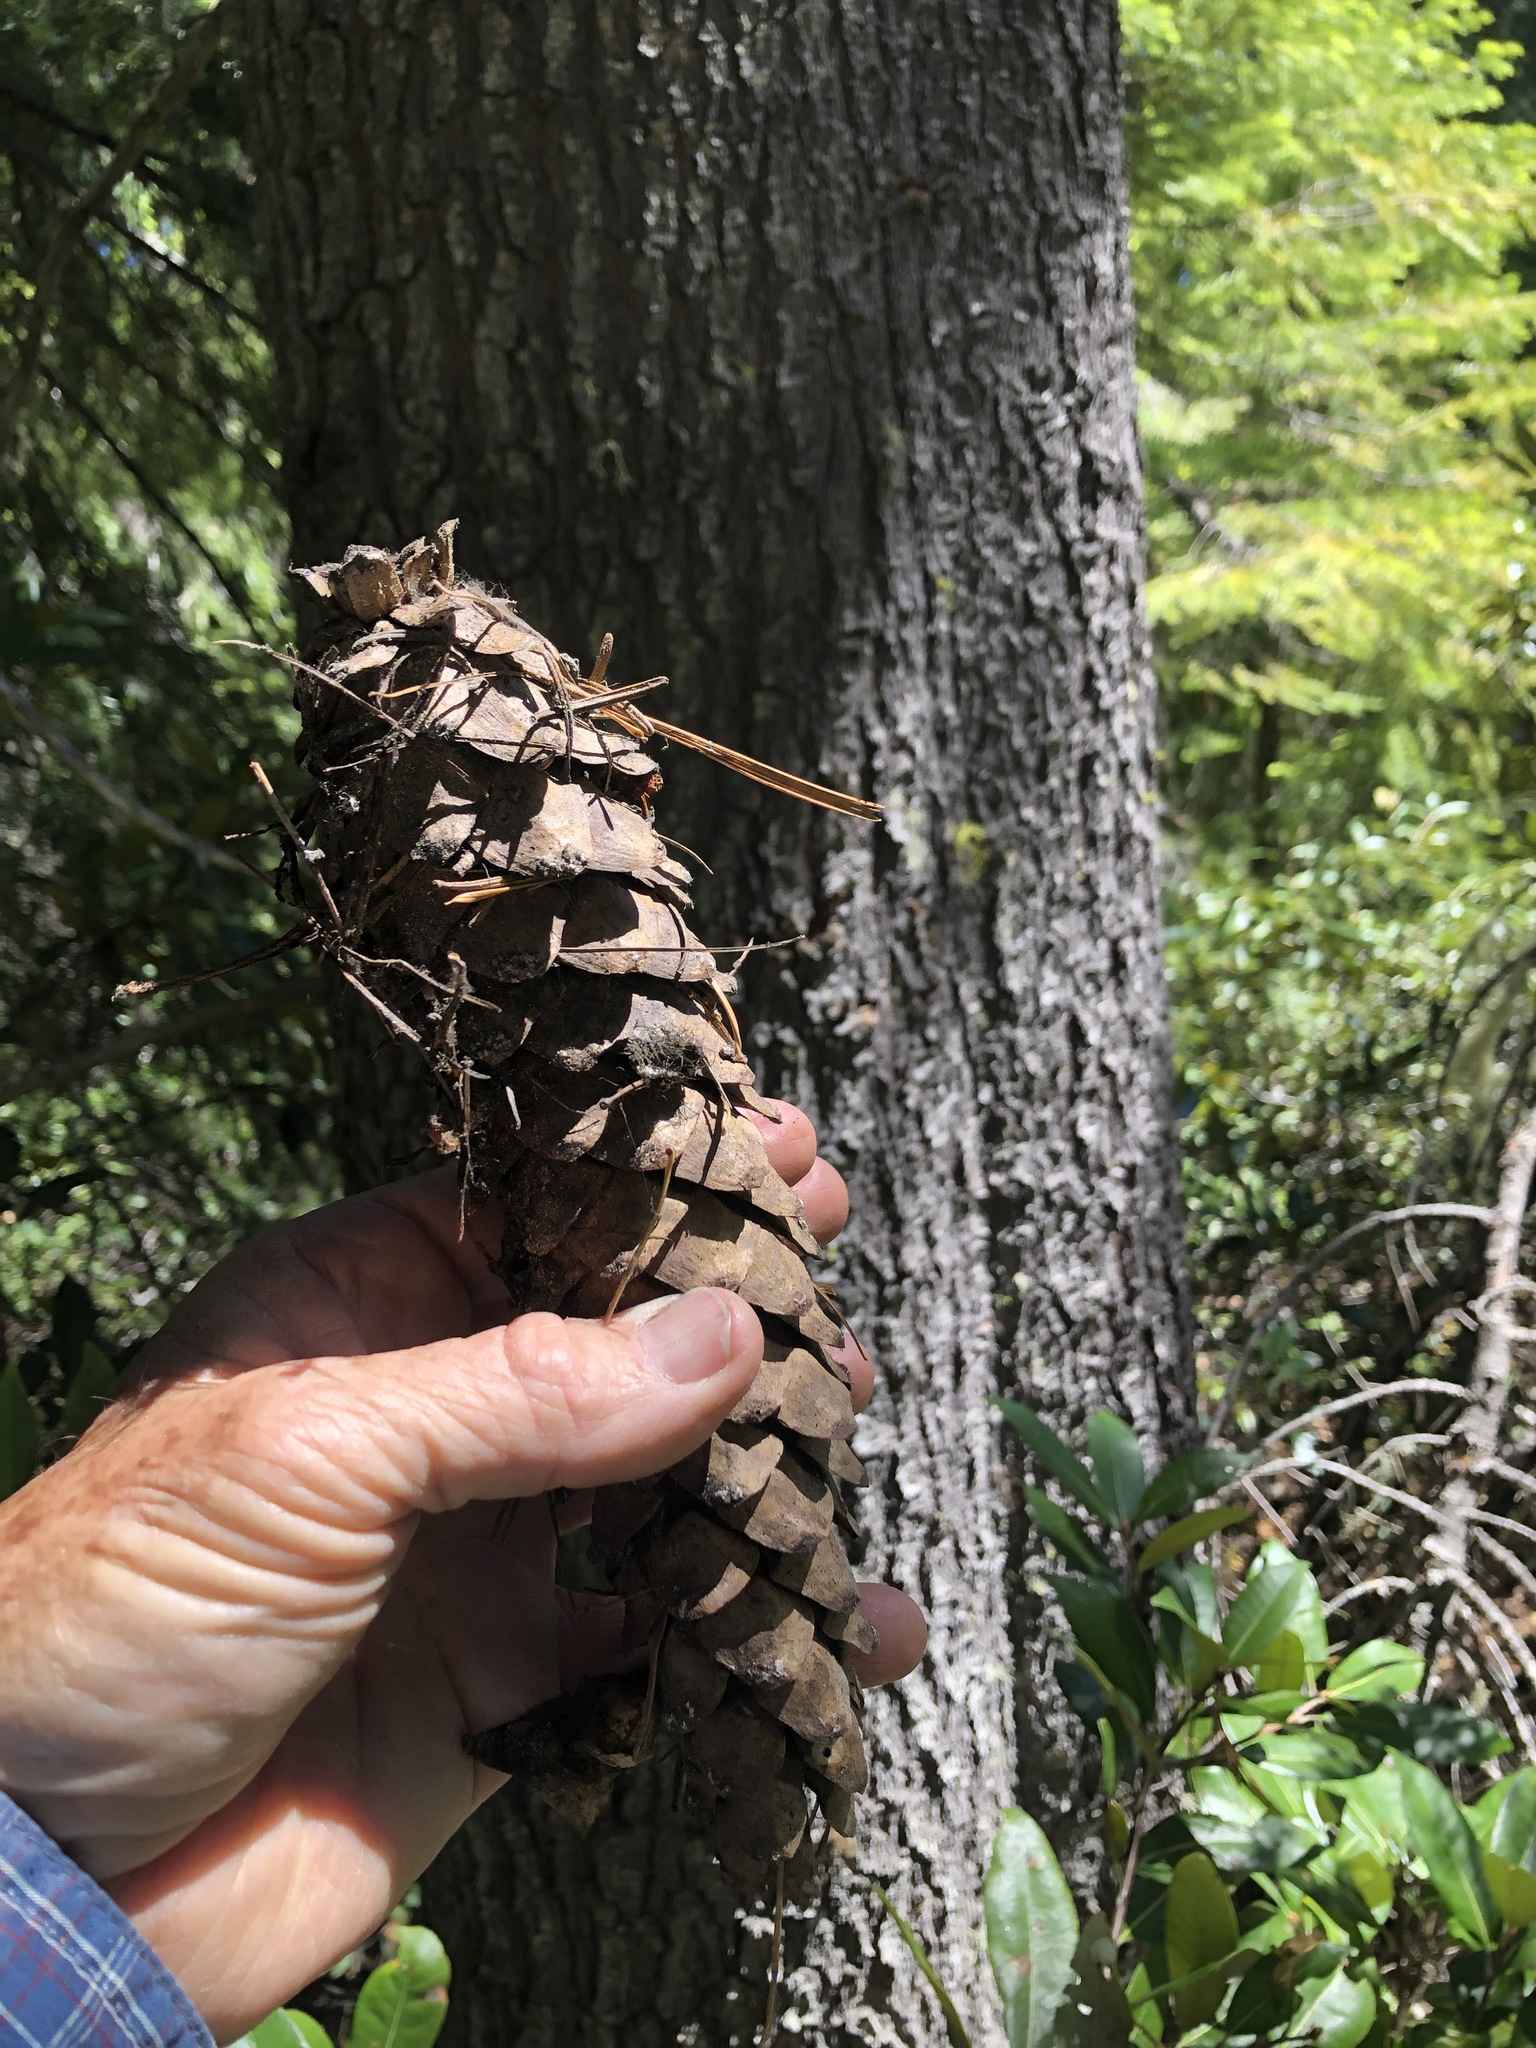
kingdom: Plantae
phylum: Tracheophyta
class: Pinopsida
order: Pinales
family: Pinaceae
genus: Pinus
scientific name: Pinus monticola
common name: Western white pine
